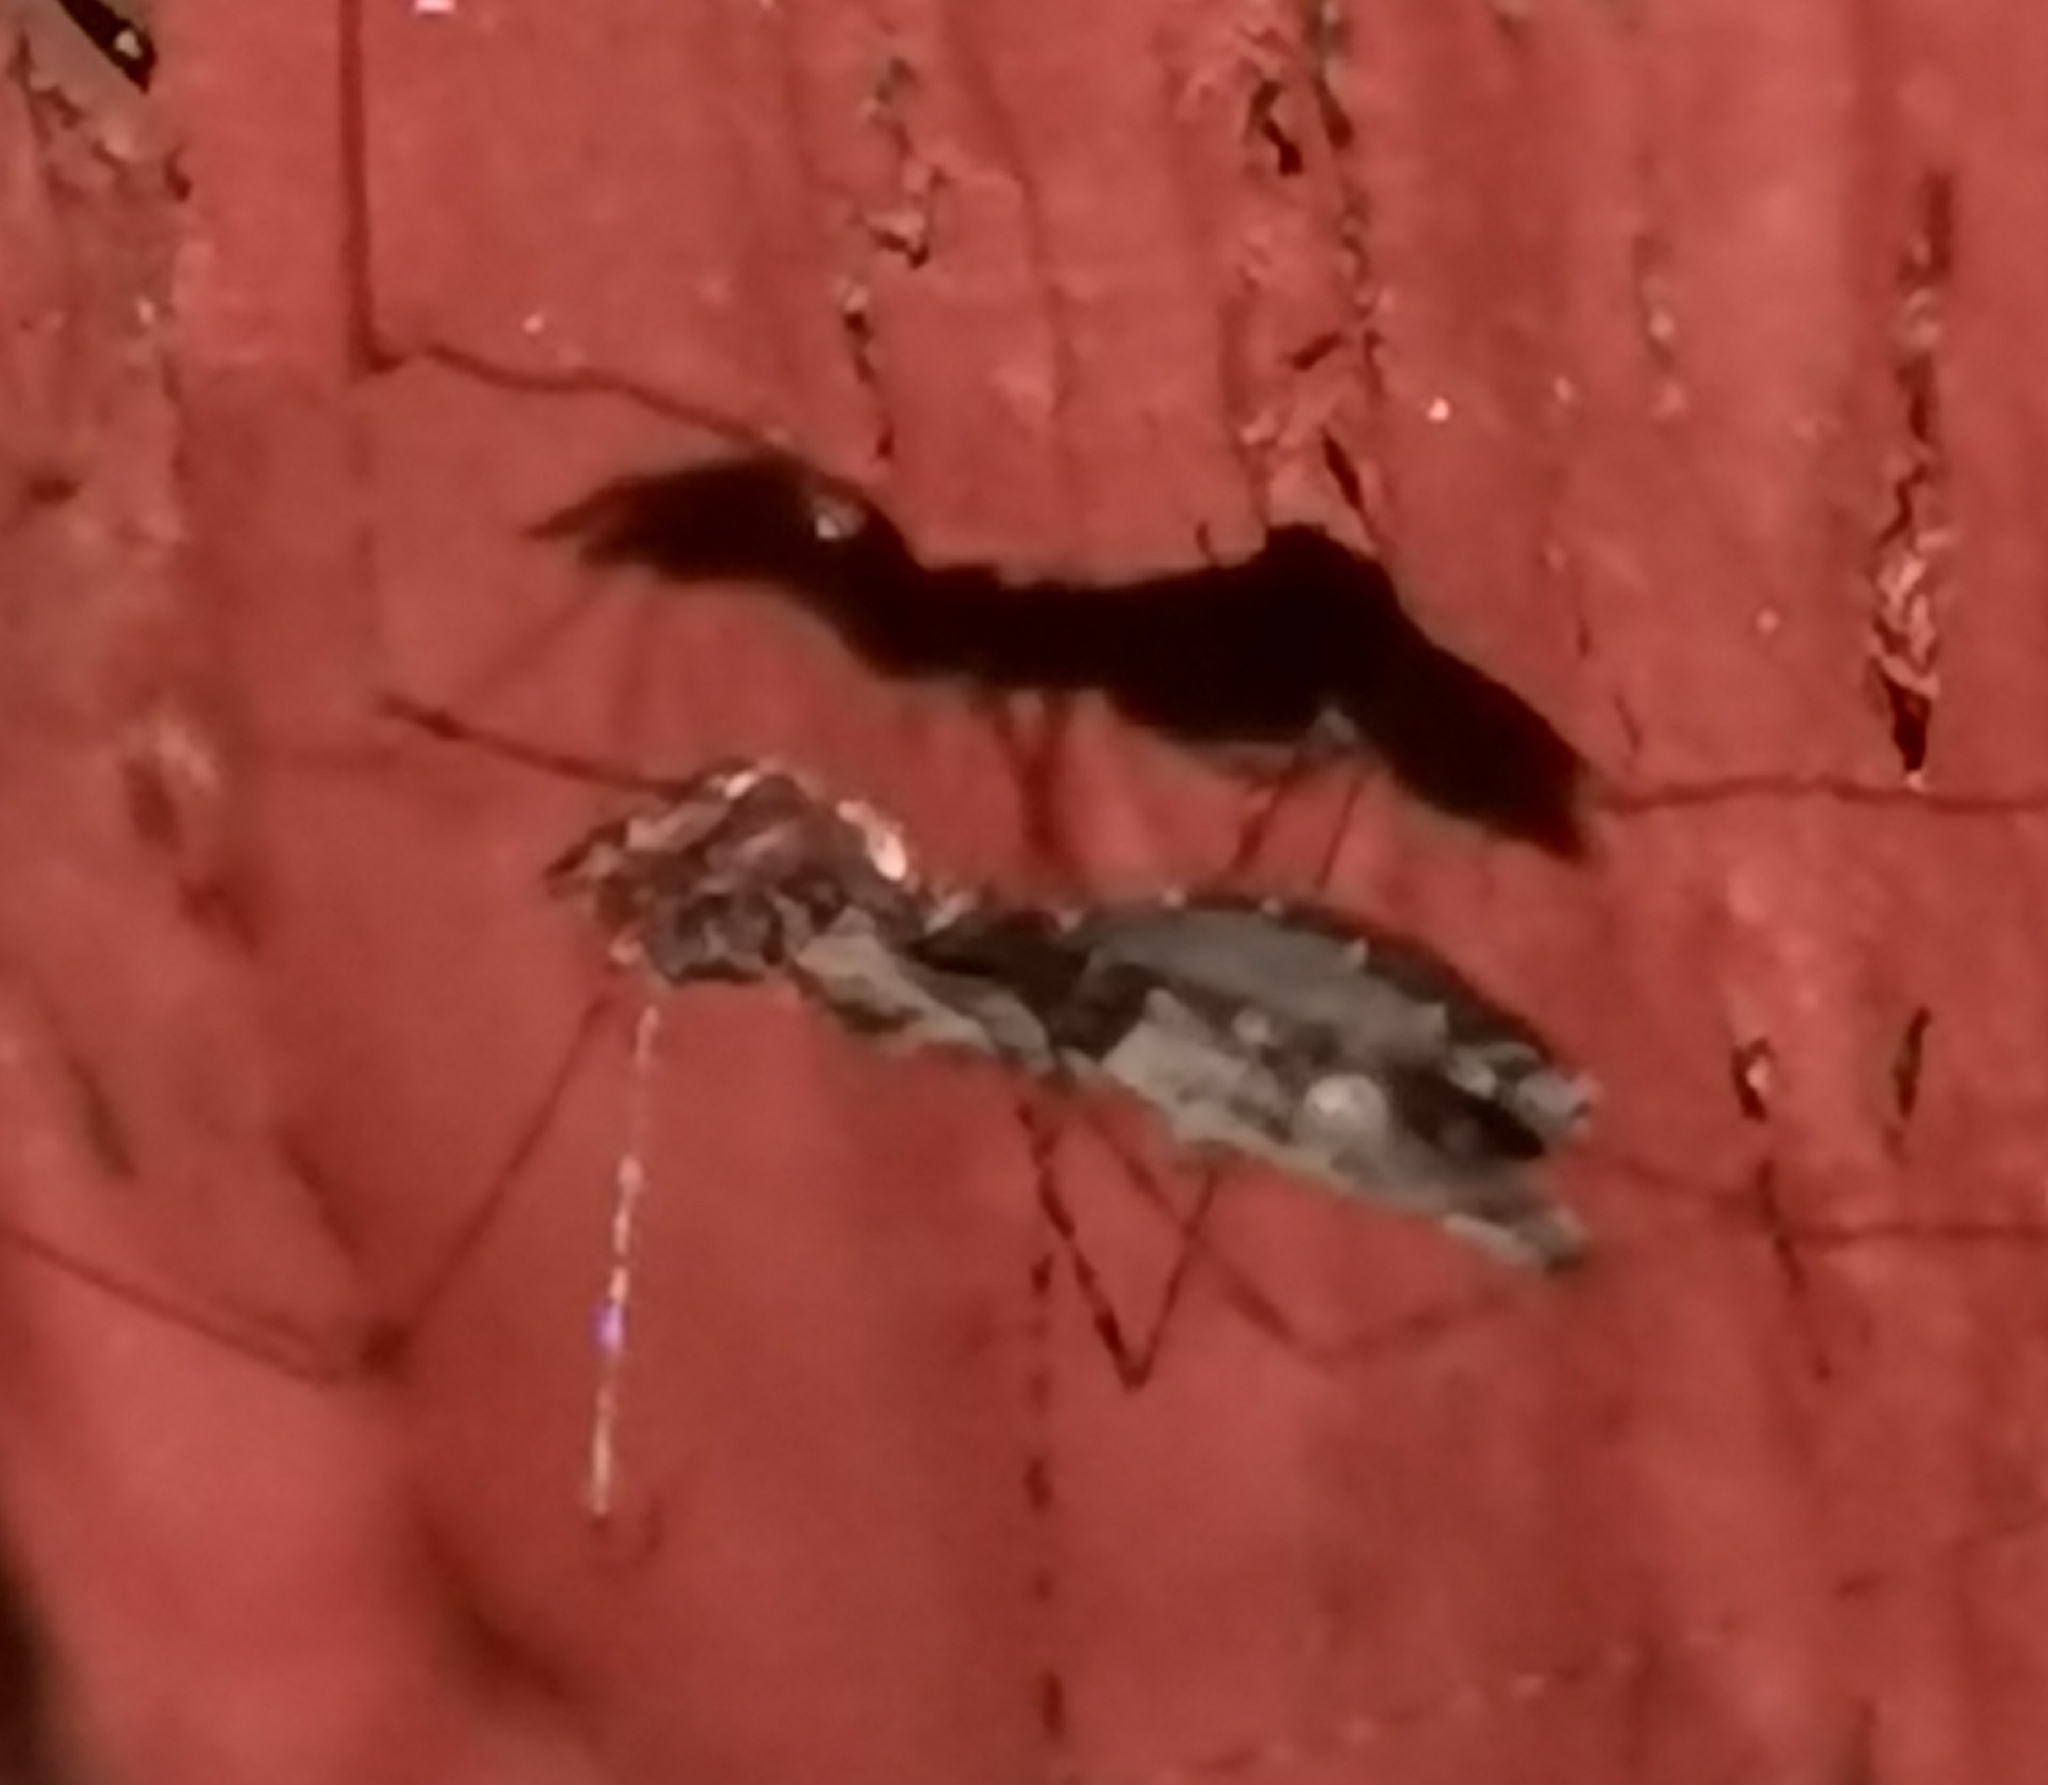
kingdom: Animalia
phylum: Arthropoda
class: Insecta
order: Hemiptera
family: Reduviidae
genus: Empicoris
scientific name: Empicoris culiciformis
